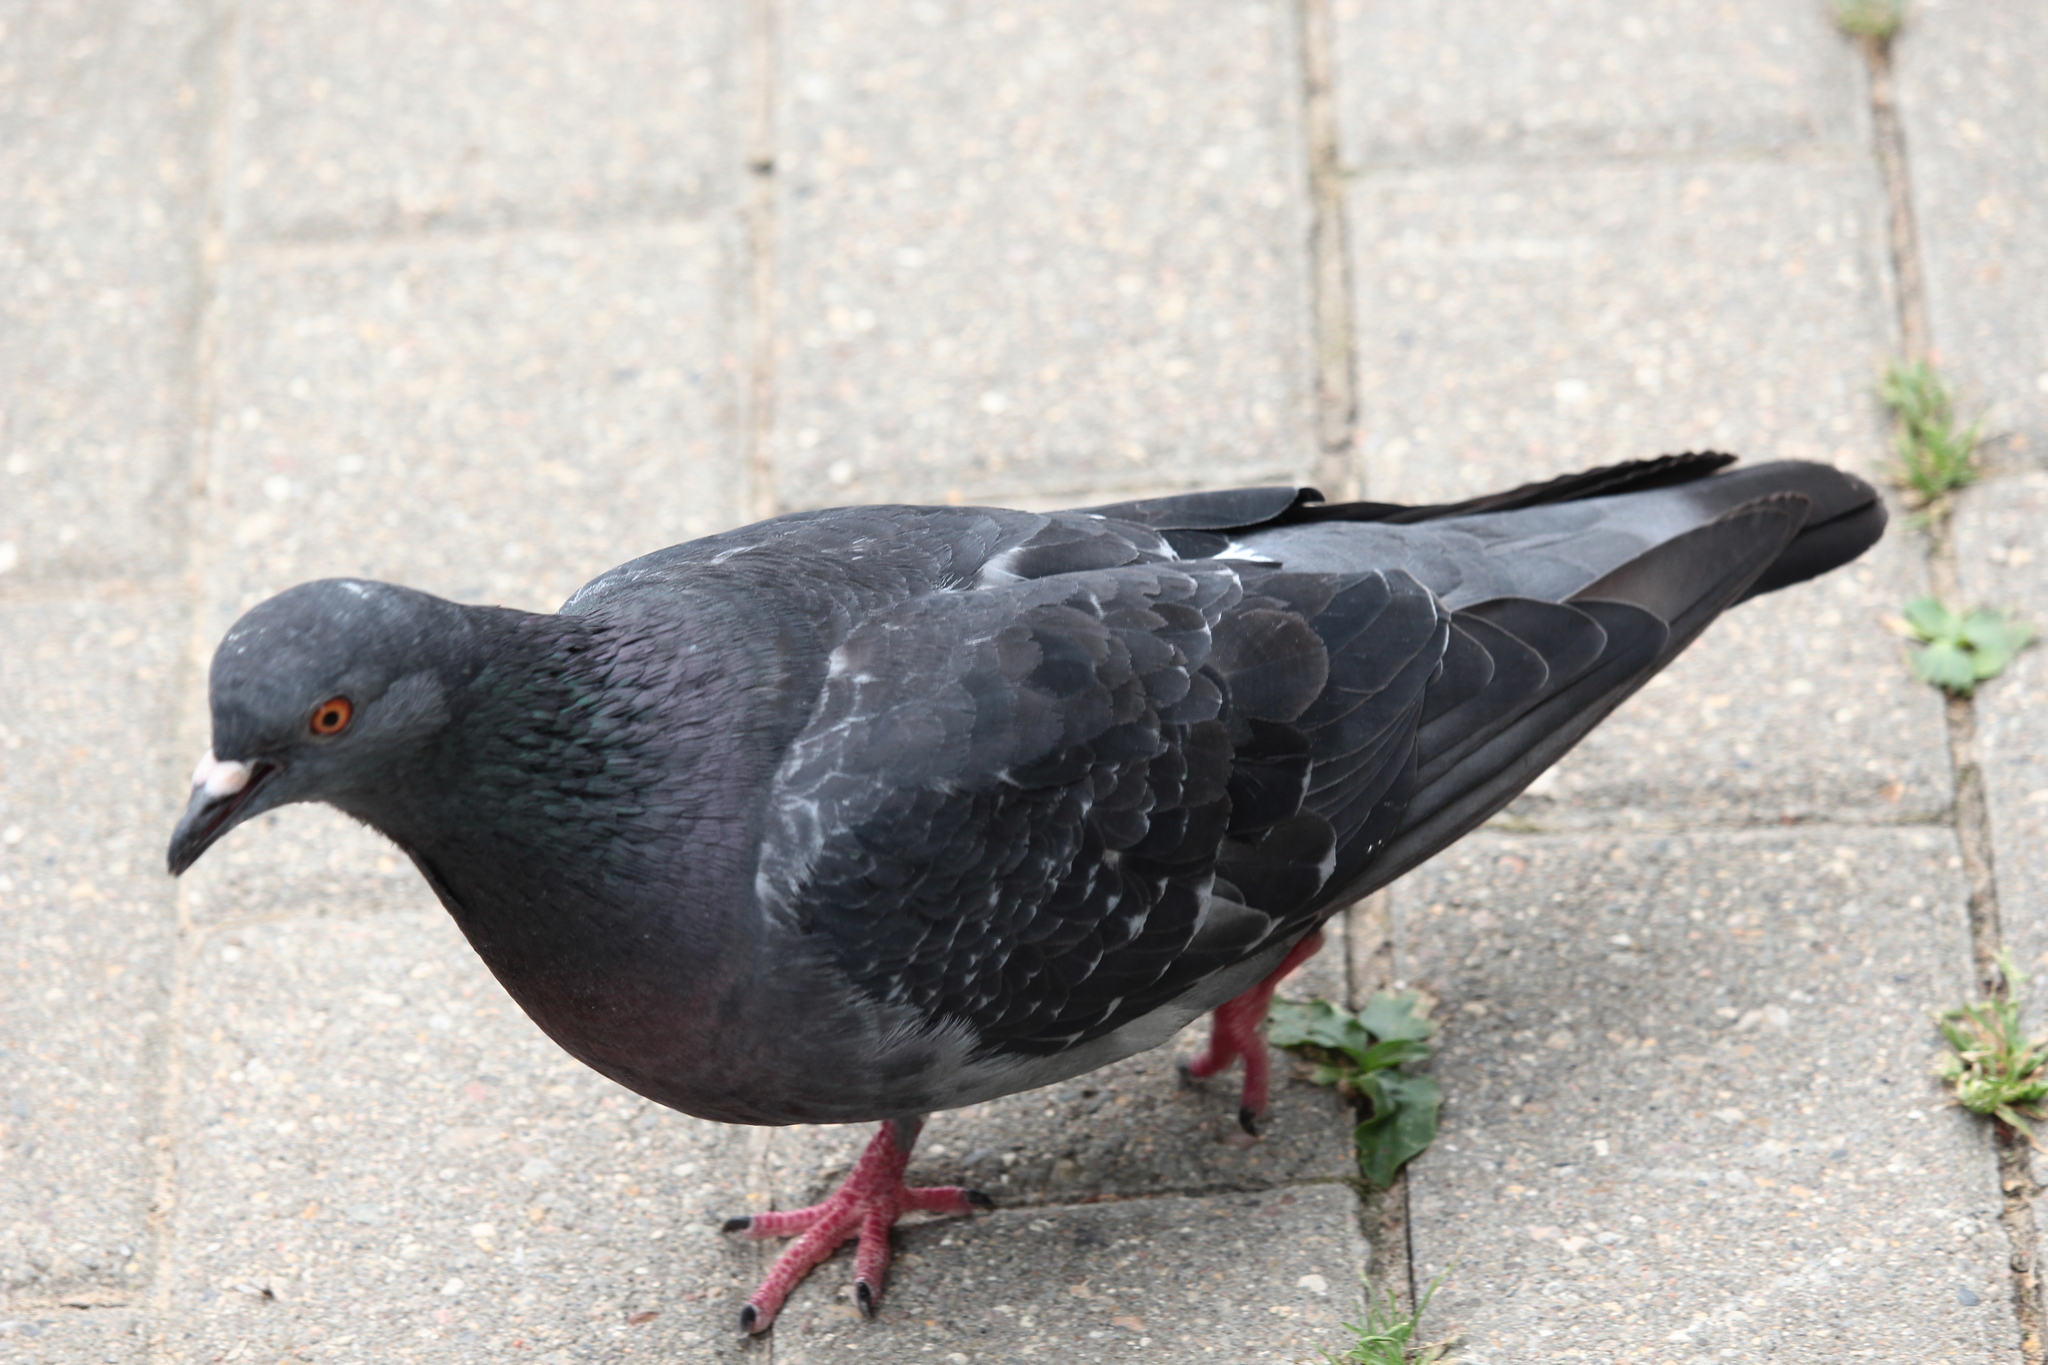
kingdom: Animalia
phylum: Chordata
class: Aves
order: Columbiformes
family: Columbidae
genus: Columba
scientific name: Columba livia
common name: Rock pigeon
